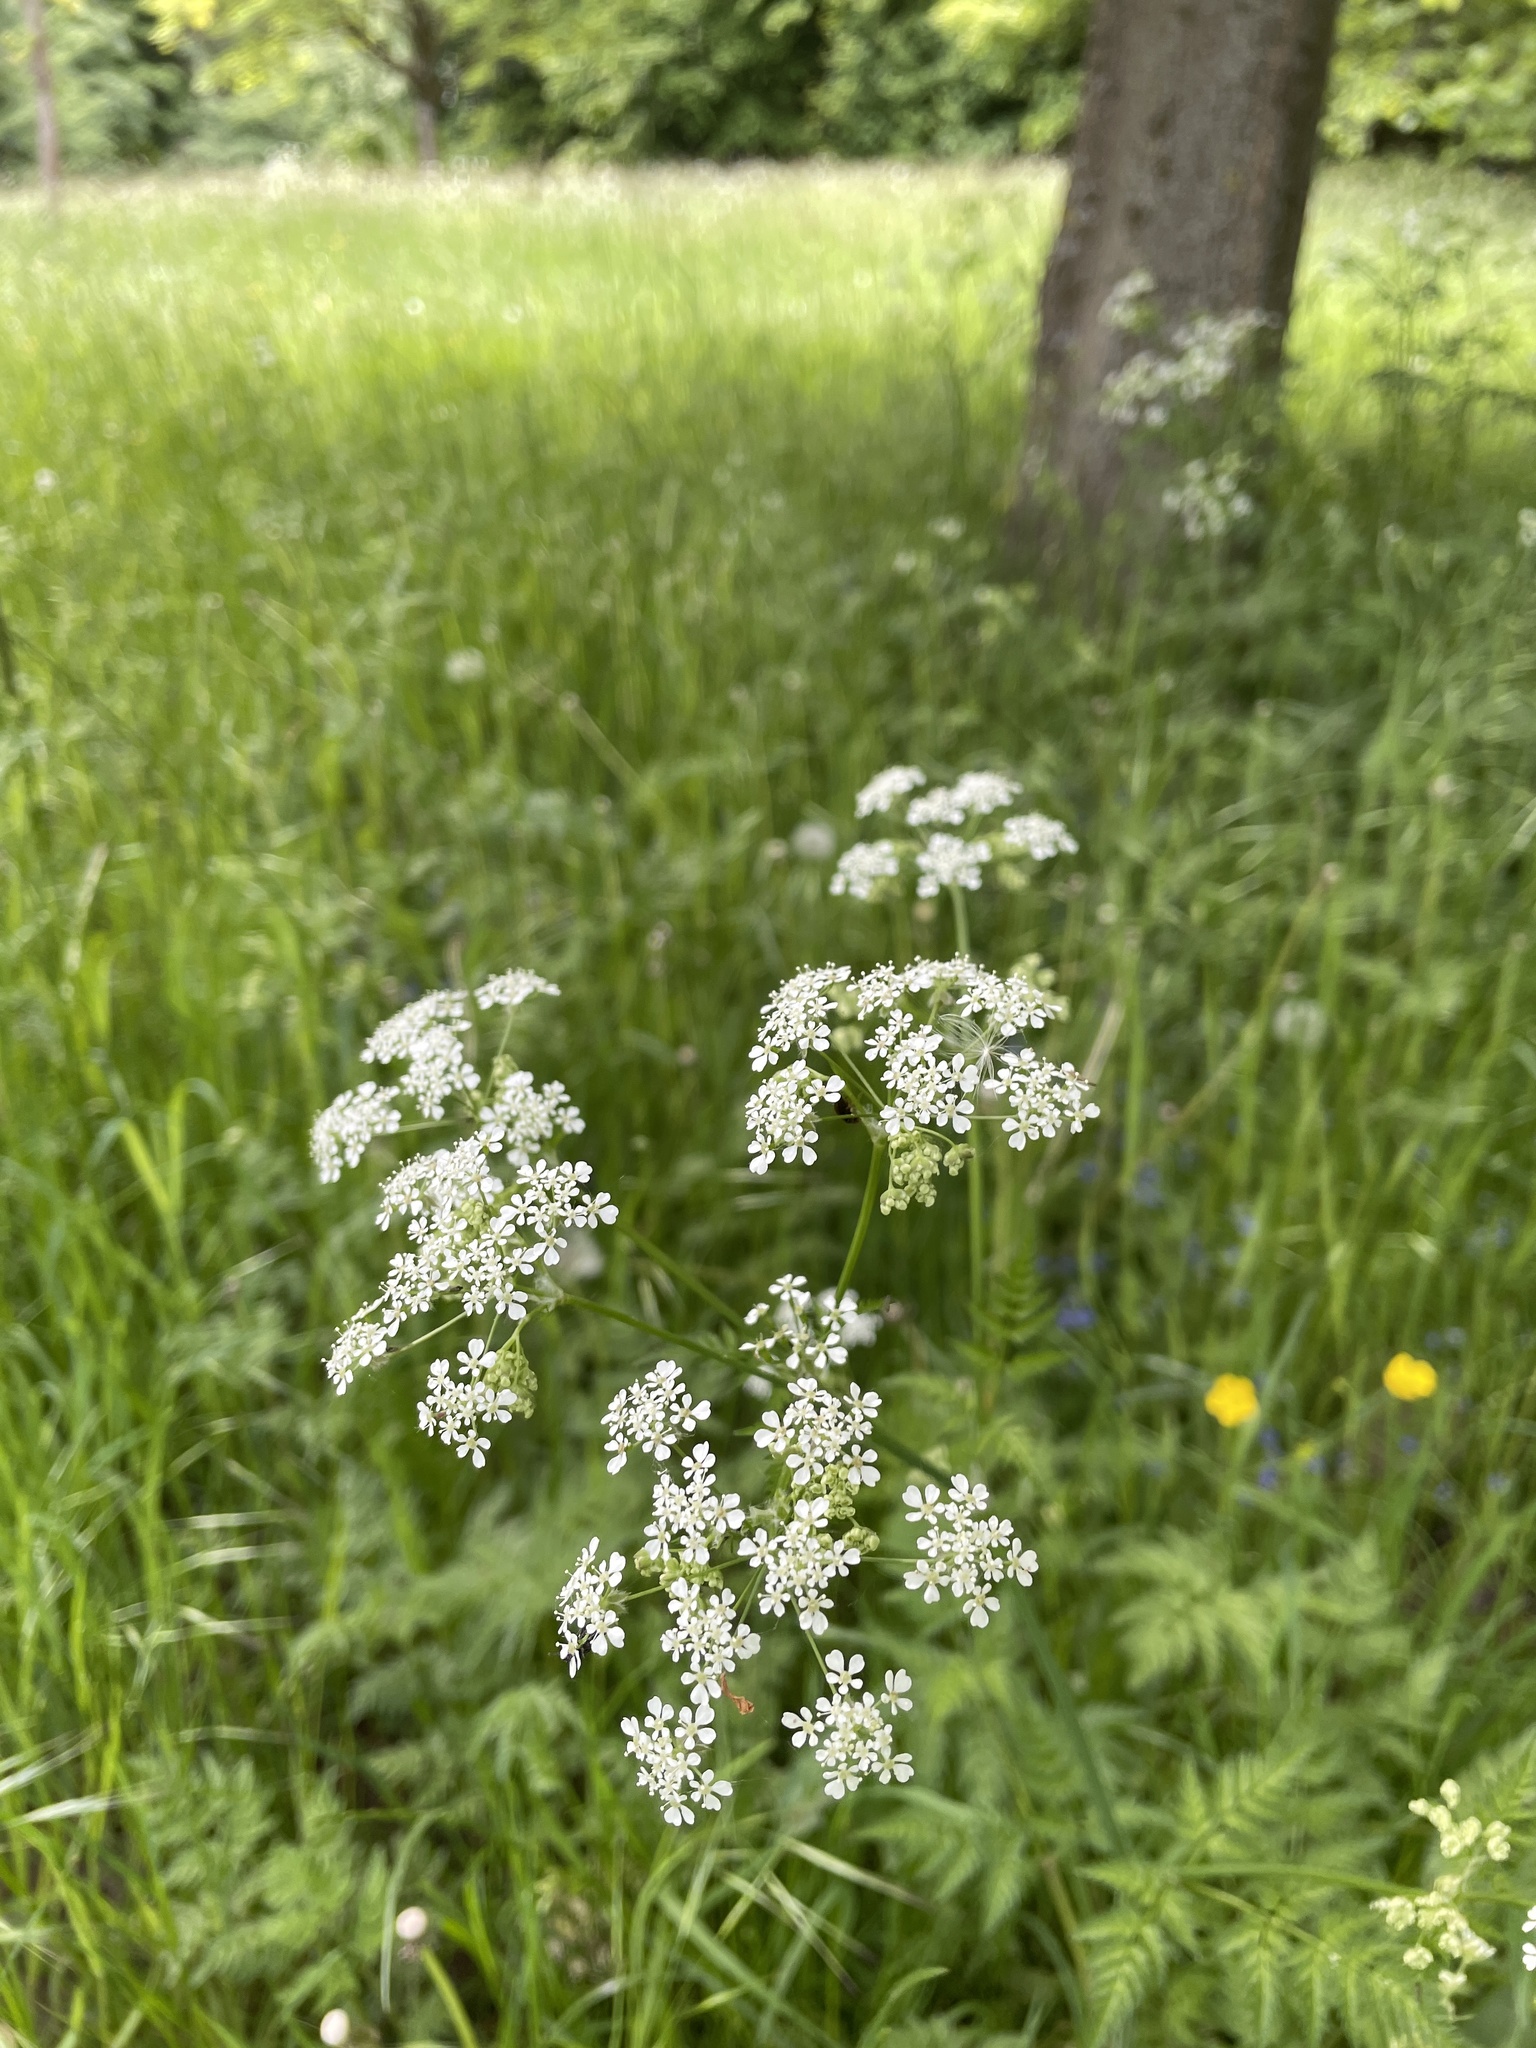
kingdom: Plantae
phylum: Tracheophyta
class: Magnoliopsida
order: Apiales
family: Apiaceae
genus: Anthriscus
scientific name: Anthriscus sylvestris
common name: Cow parsley
